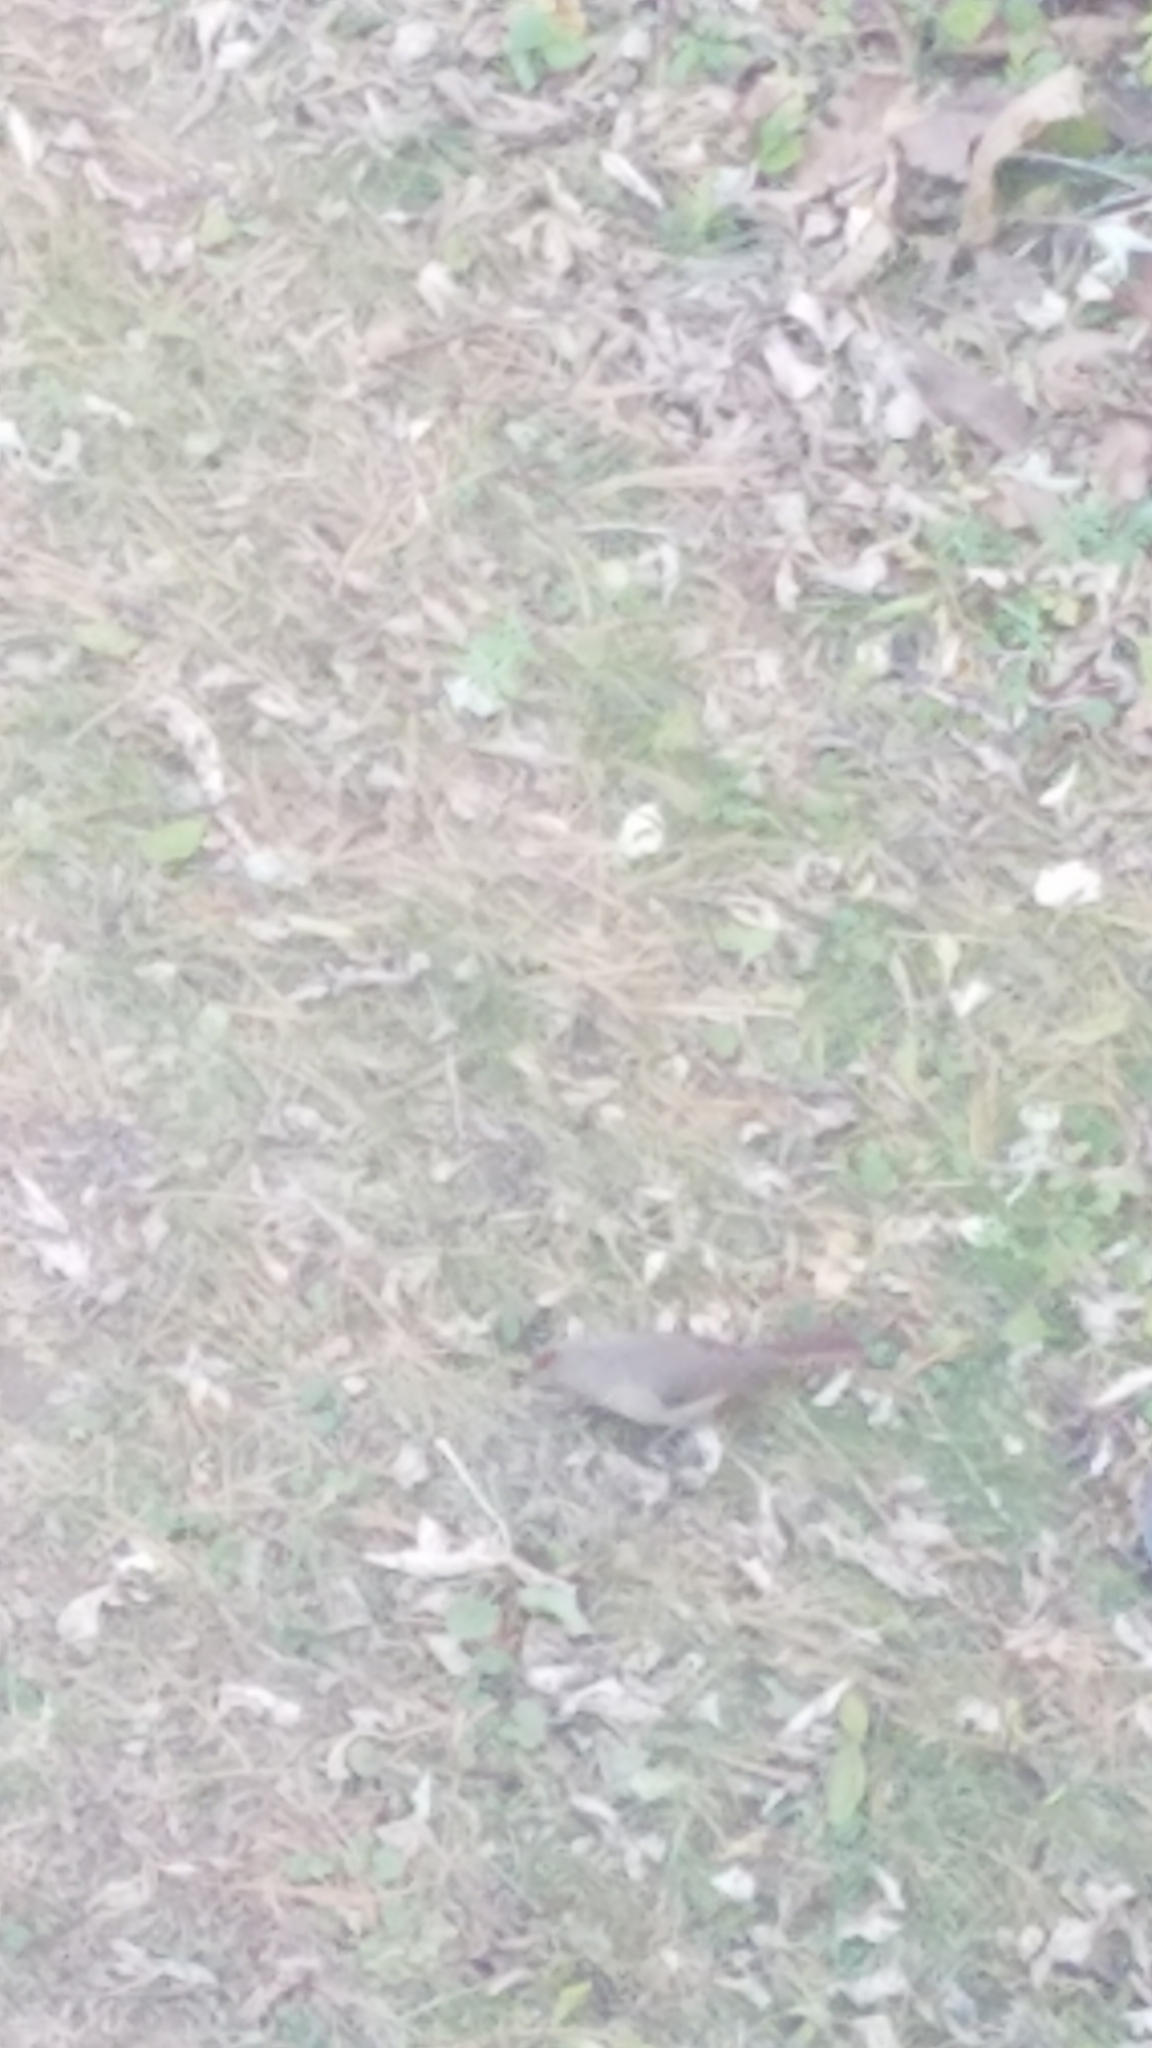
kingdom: Animalia
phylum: Chordata
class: Aves
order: Passeriformes
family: Cardinalidae
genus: Cardinalis
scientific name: Cardinalis cardinalis
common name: Northern cardinal
